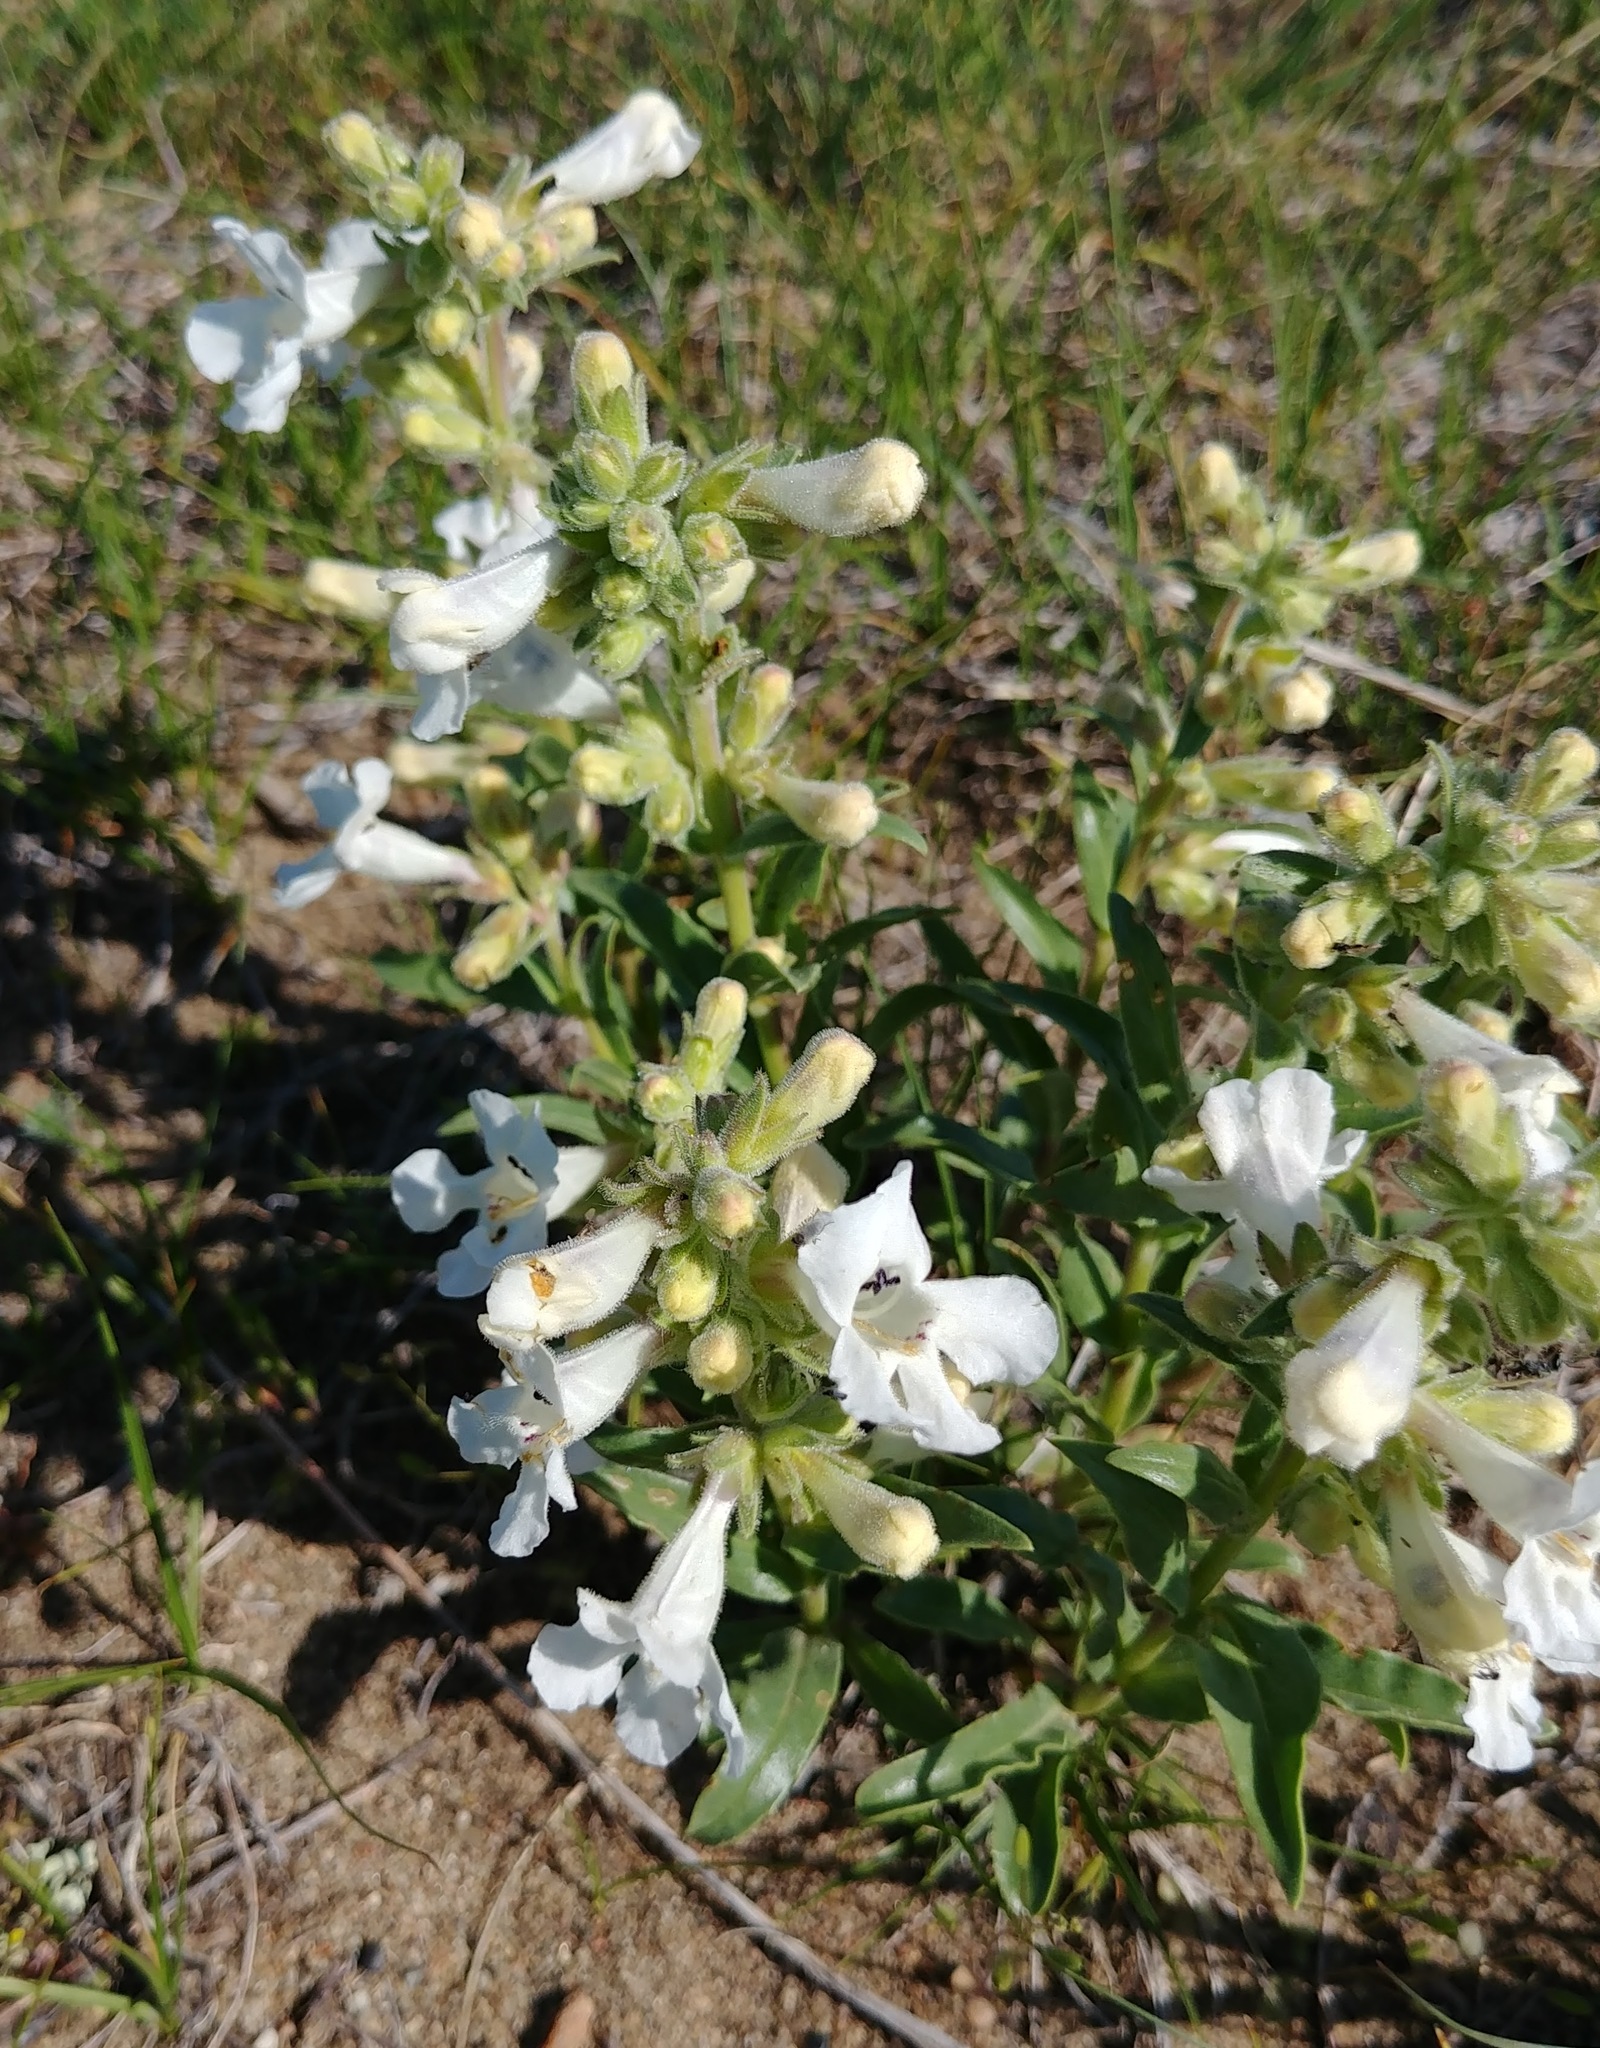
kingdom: Plantae
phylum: Tracheophyta
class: Magnoliopsida
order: Lamiales
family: Plantaginaceae
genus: Penstemon
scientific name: Penstemon albidus
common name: White beardtongue
